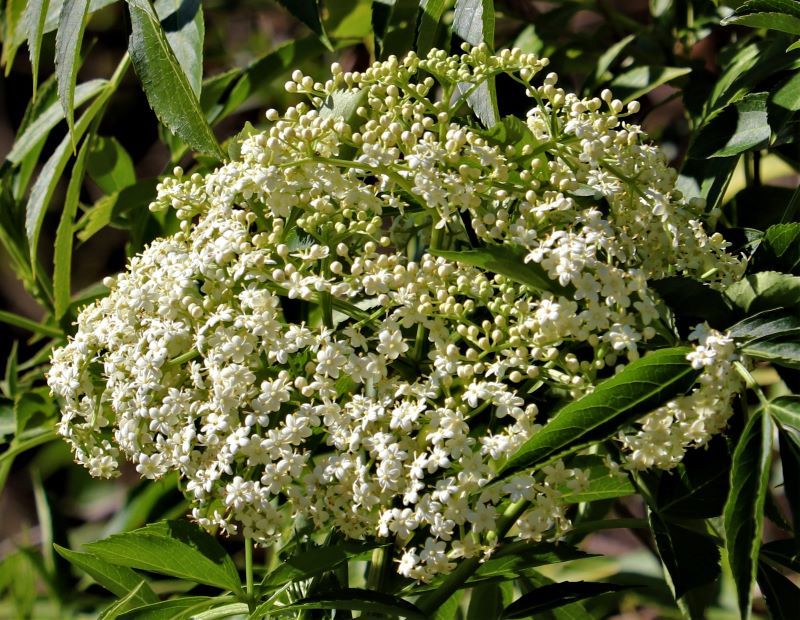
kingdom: Plantae
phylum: Tracheophyta
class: Magnoliopsida
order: Dipsacales
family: Viburnaceae
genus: Sambucus
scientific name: Sambucus canadensis
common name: American elder
